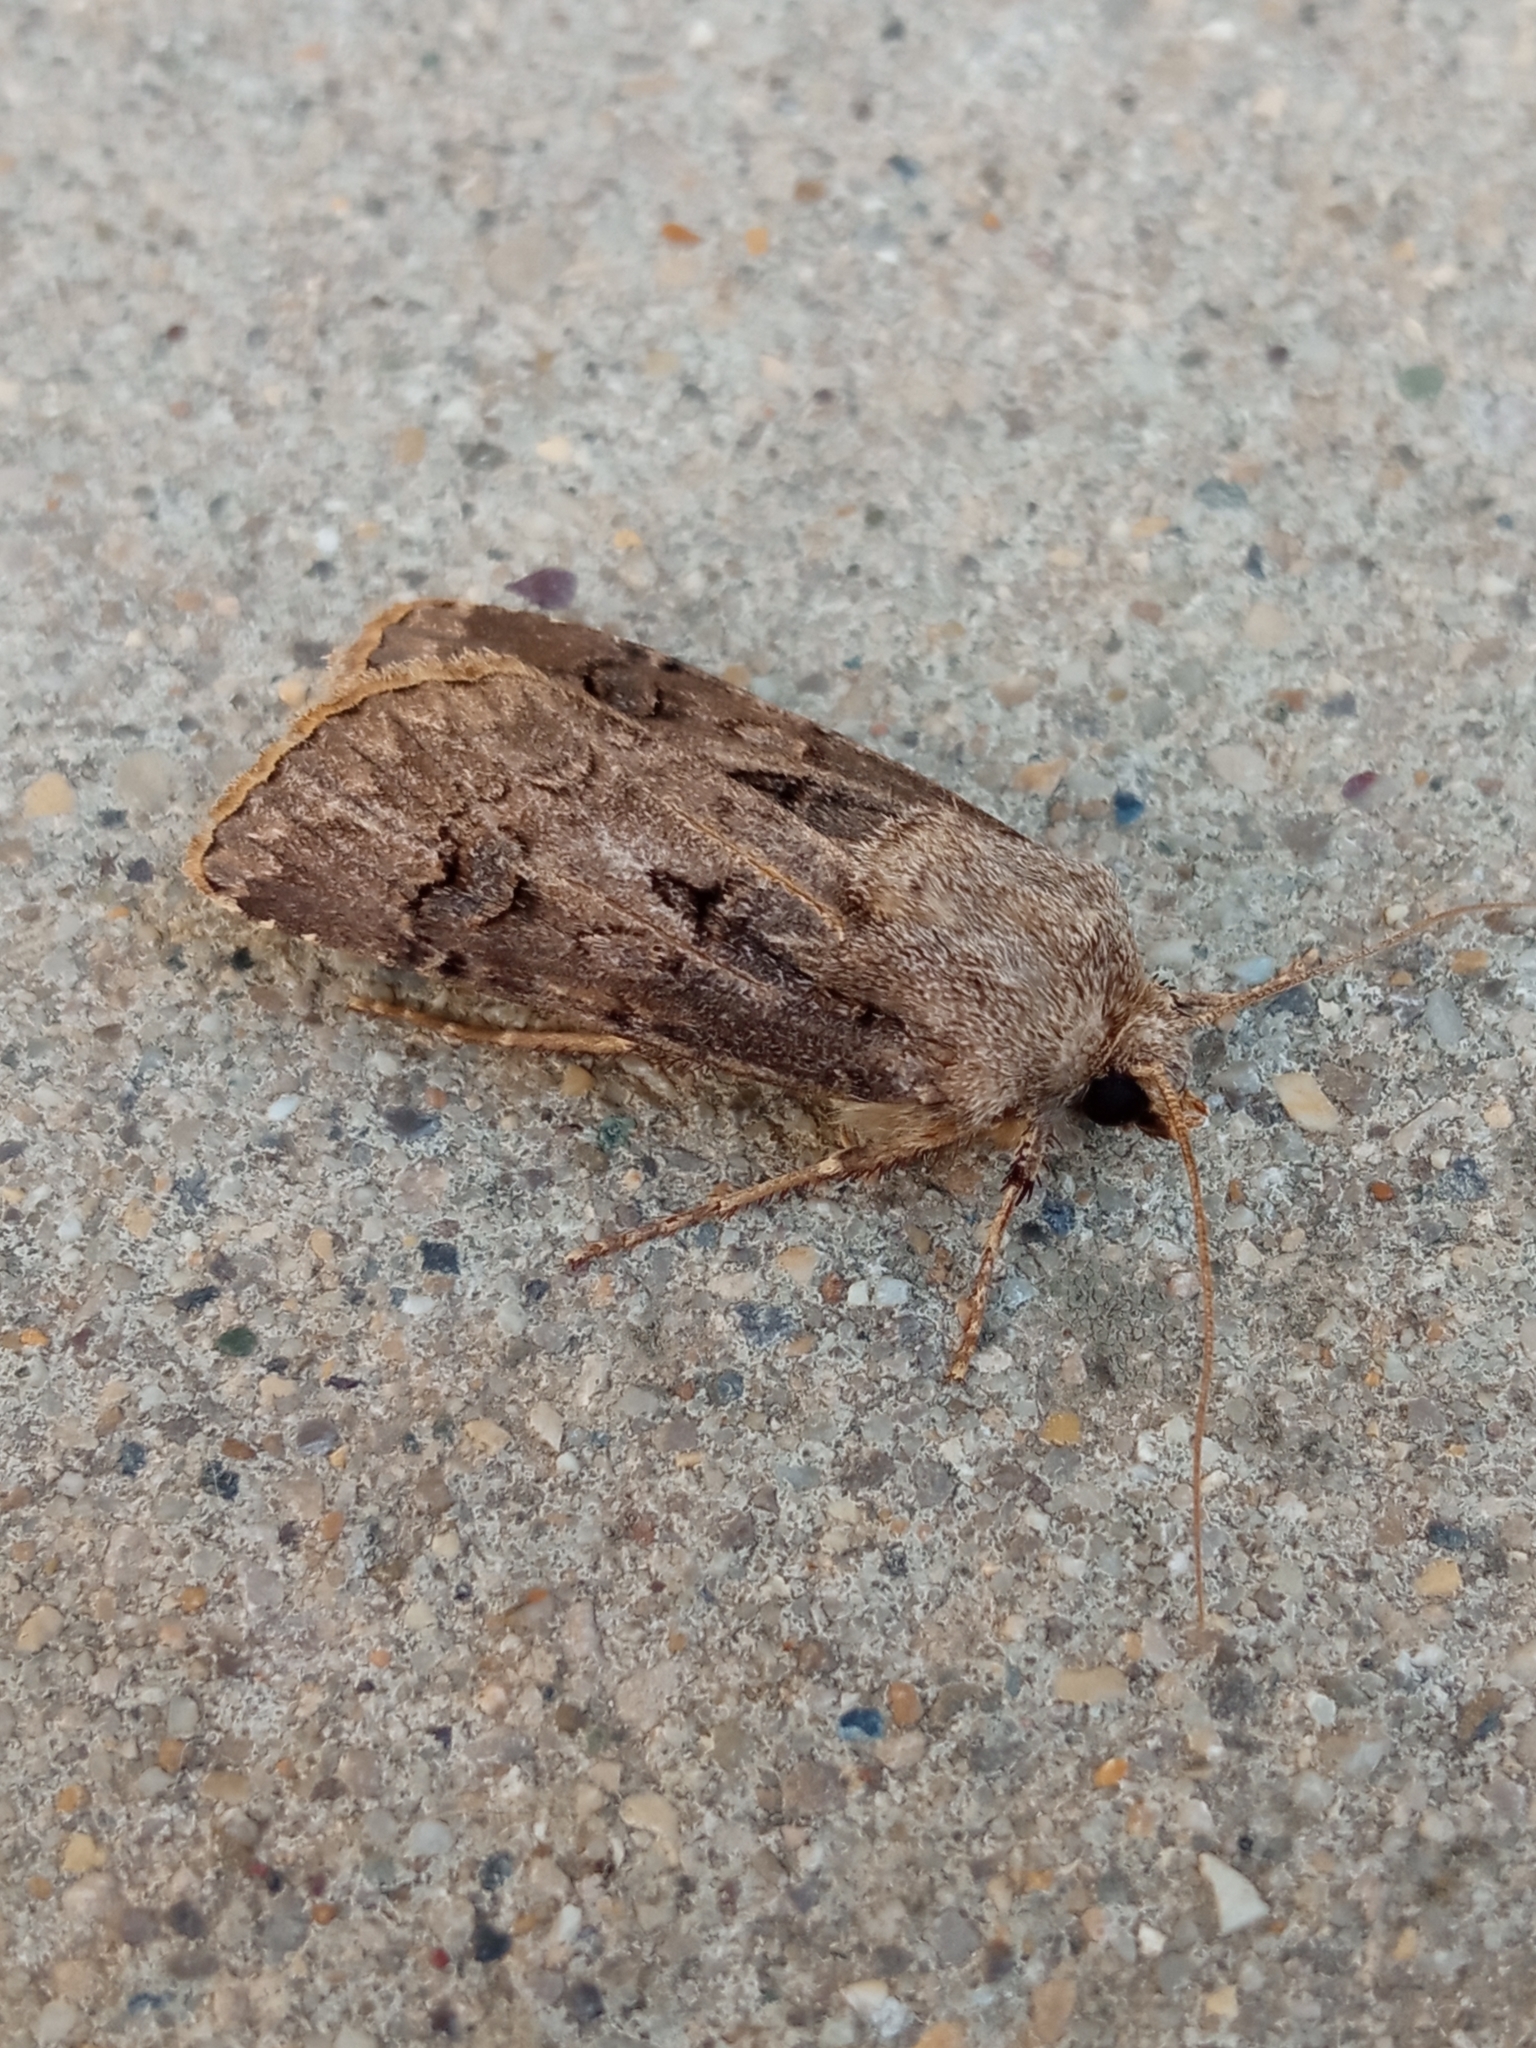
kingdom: Animalia
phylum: Arthropoda
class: Insecta
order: Lepidoptera
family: Noctuidae
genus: Agrotis
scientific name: Agrotis bigramma
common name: Great dart
